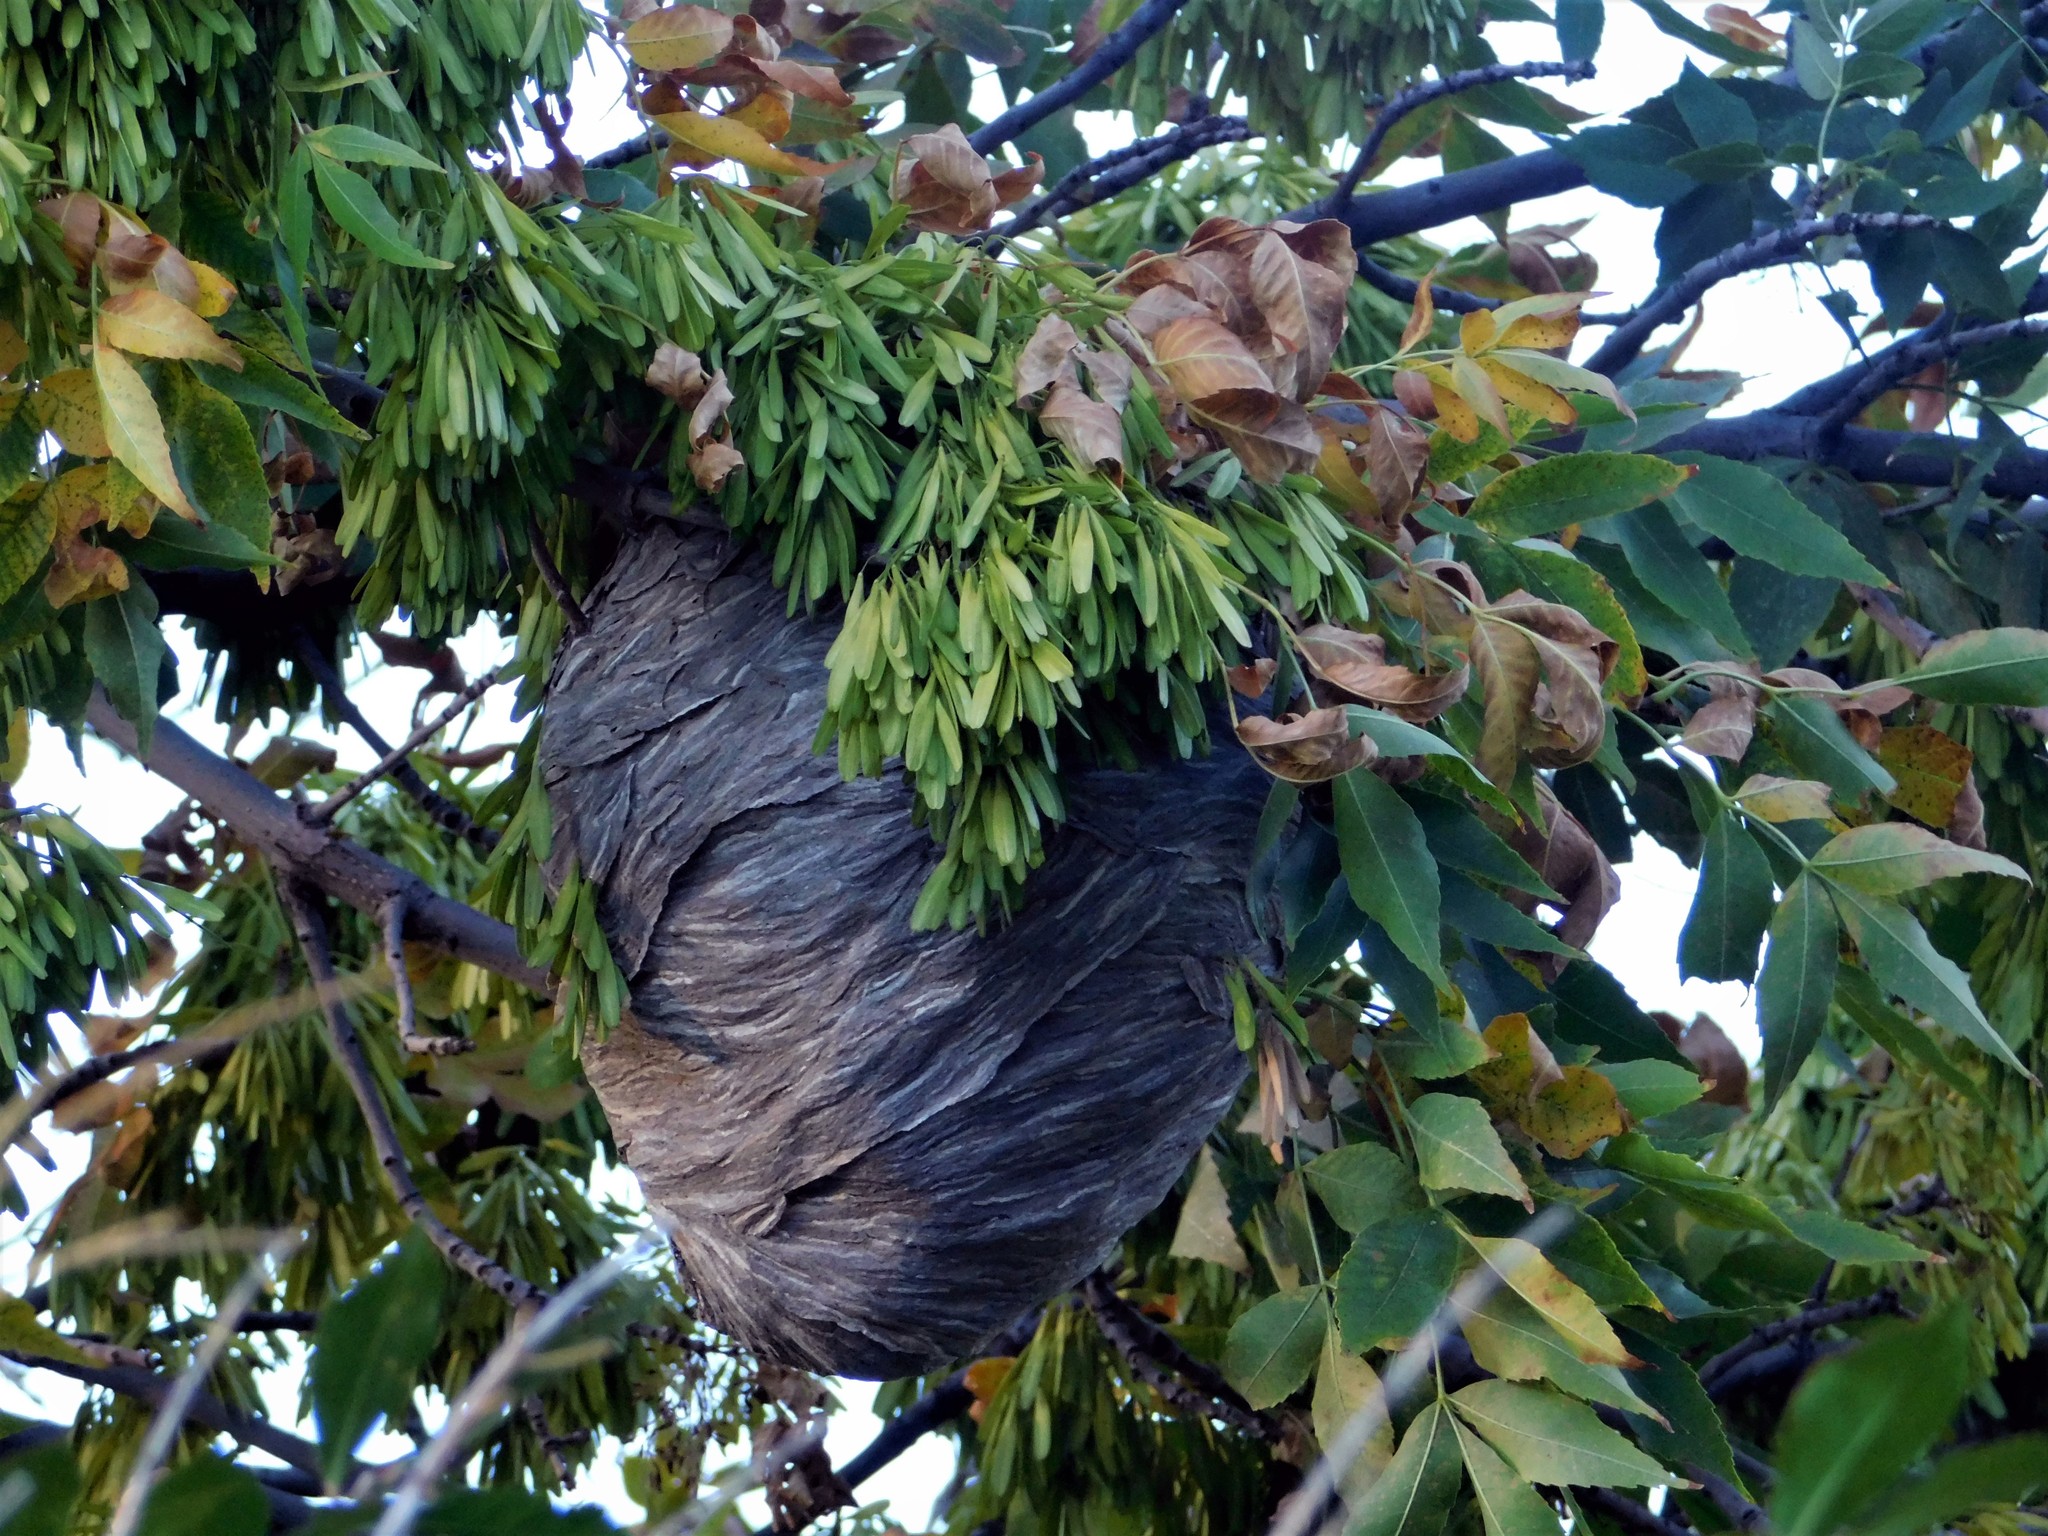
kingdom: Animalia
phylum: Arthropoda
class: Insecta
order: Hymenoptera
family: Vespidae
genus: Dolichovespula
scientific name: Dolichovespula
